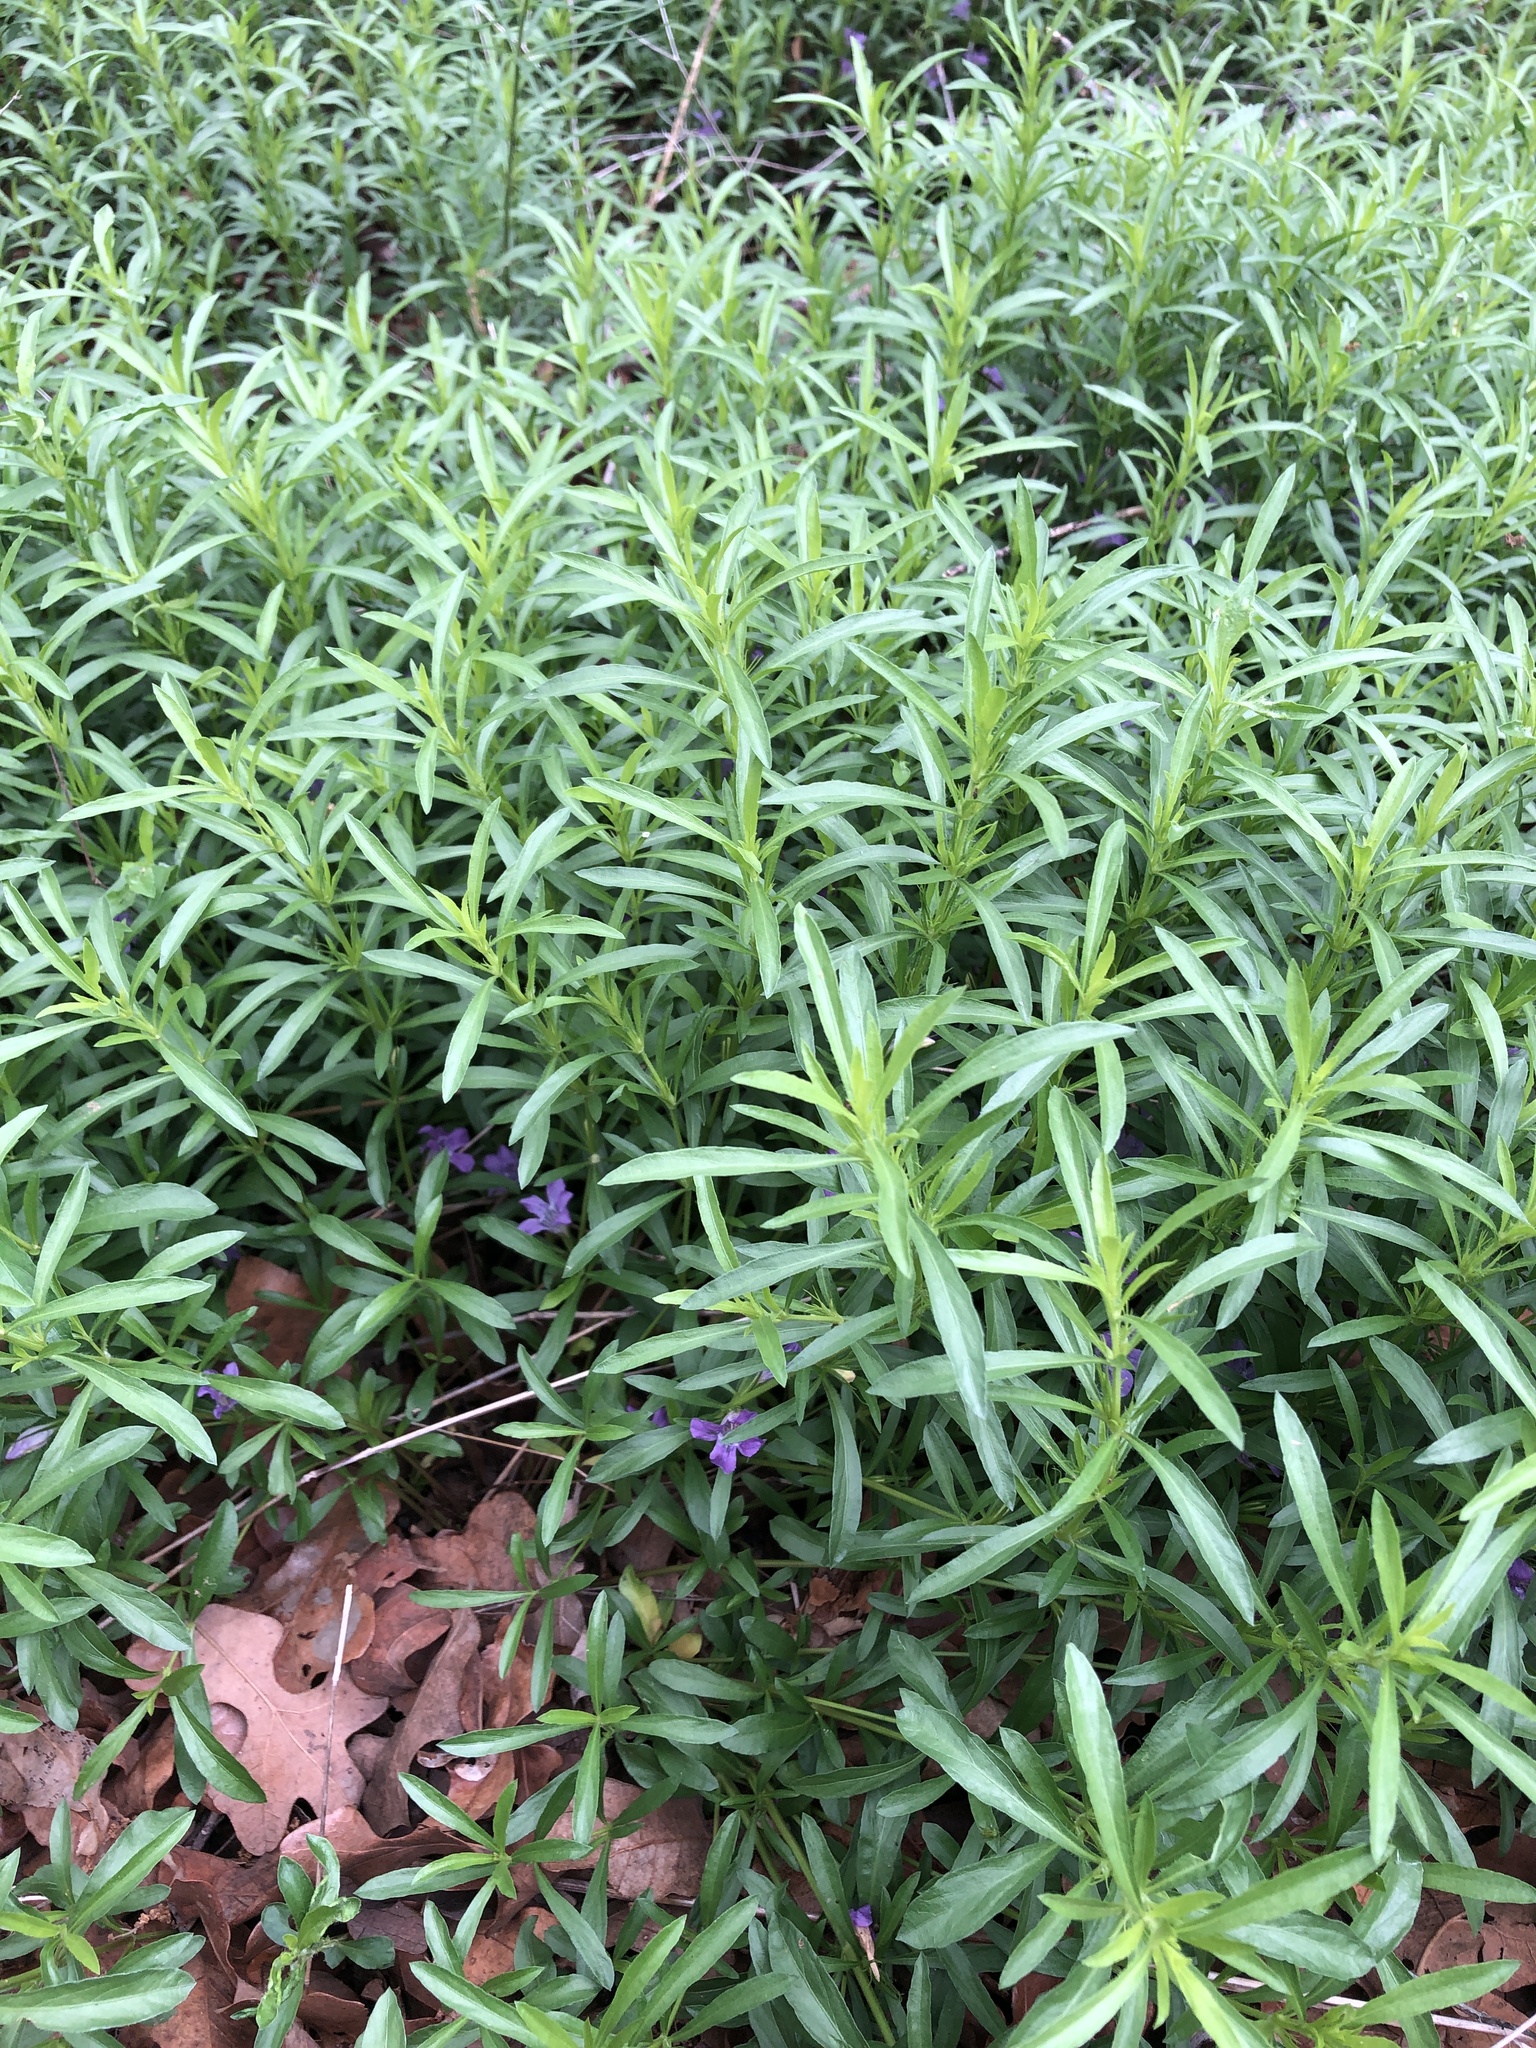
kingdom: Plantae
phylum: Tracheophyta
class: Magnoliopsida
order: Lamiales
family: Acanthaceae
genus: Dyschoriste
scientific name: Dyschoriste linearis
